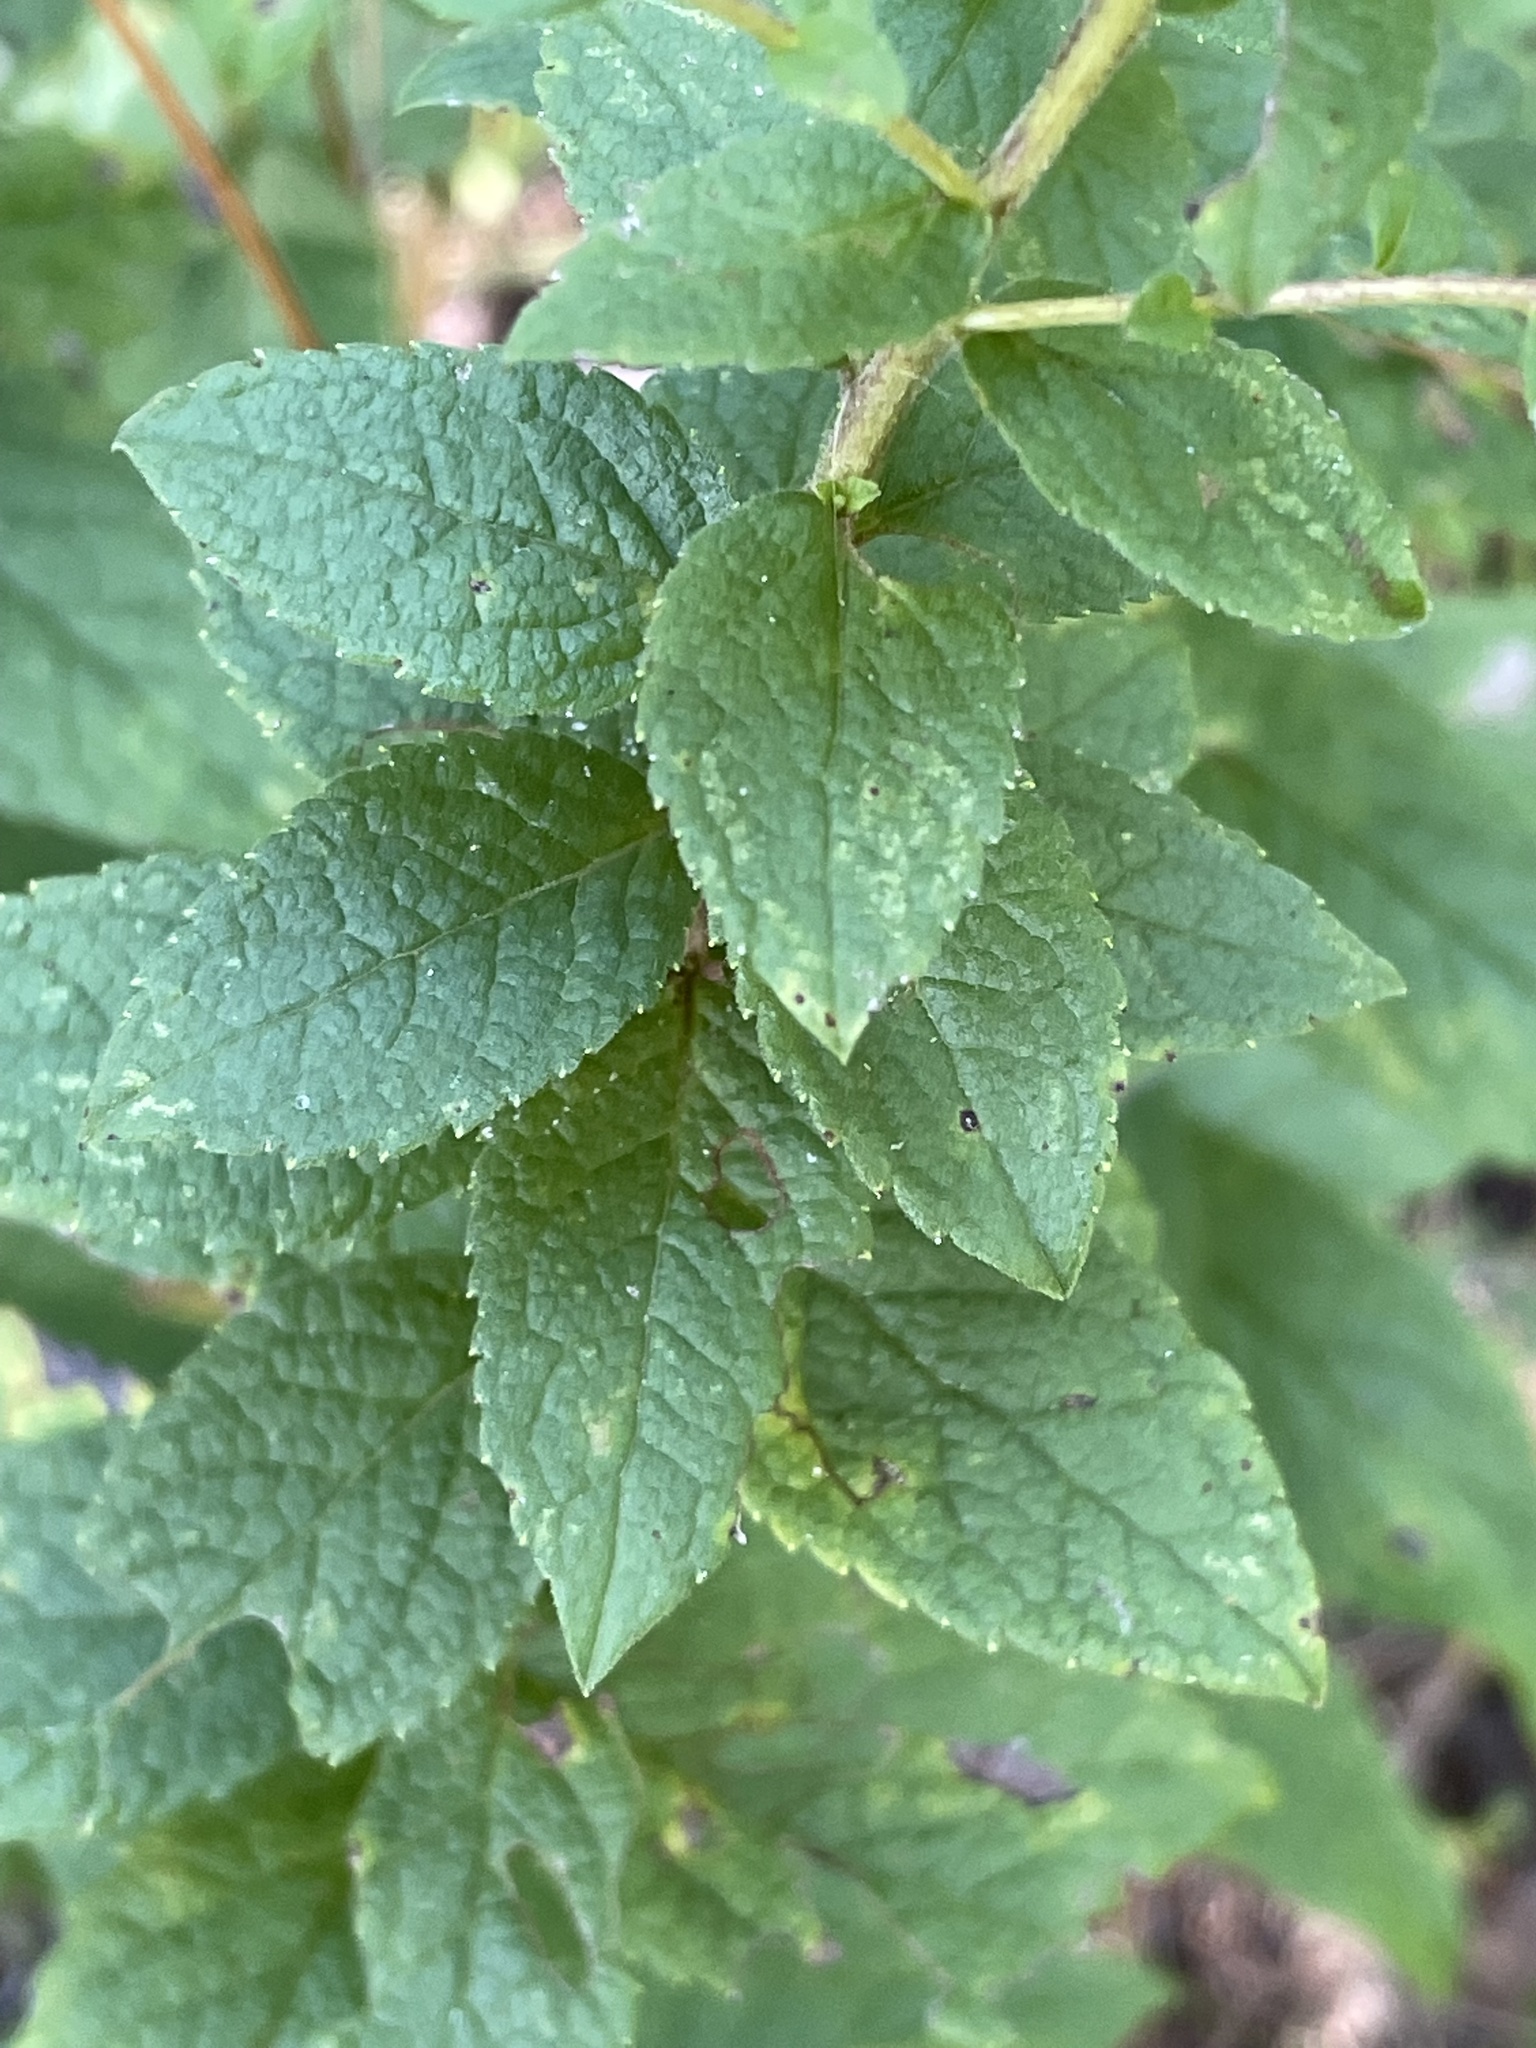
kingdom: Plantae
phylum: Tracheophyta
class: Magnoliopsida
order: Asterales
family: Asteraceae
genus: Solidago
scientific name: Solidago rugosa
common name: Rough-stemmed goldenrod
